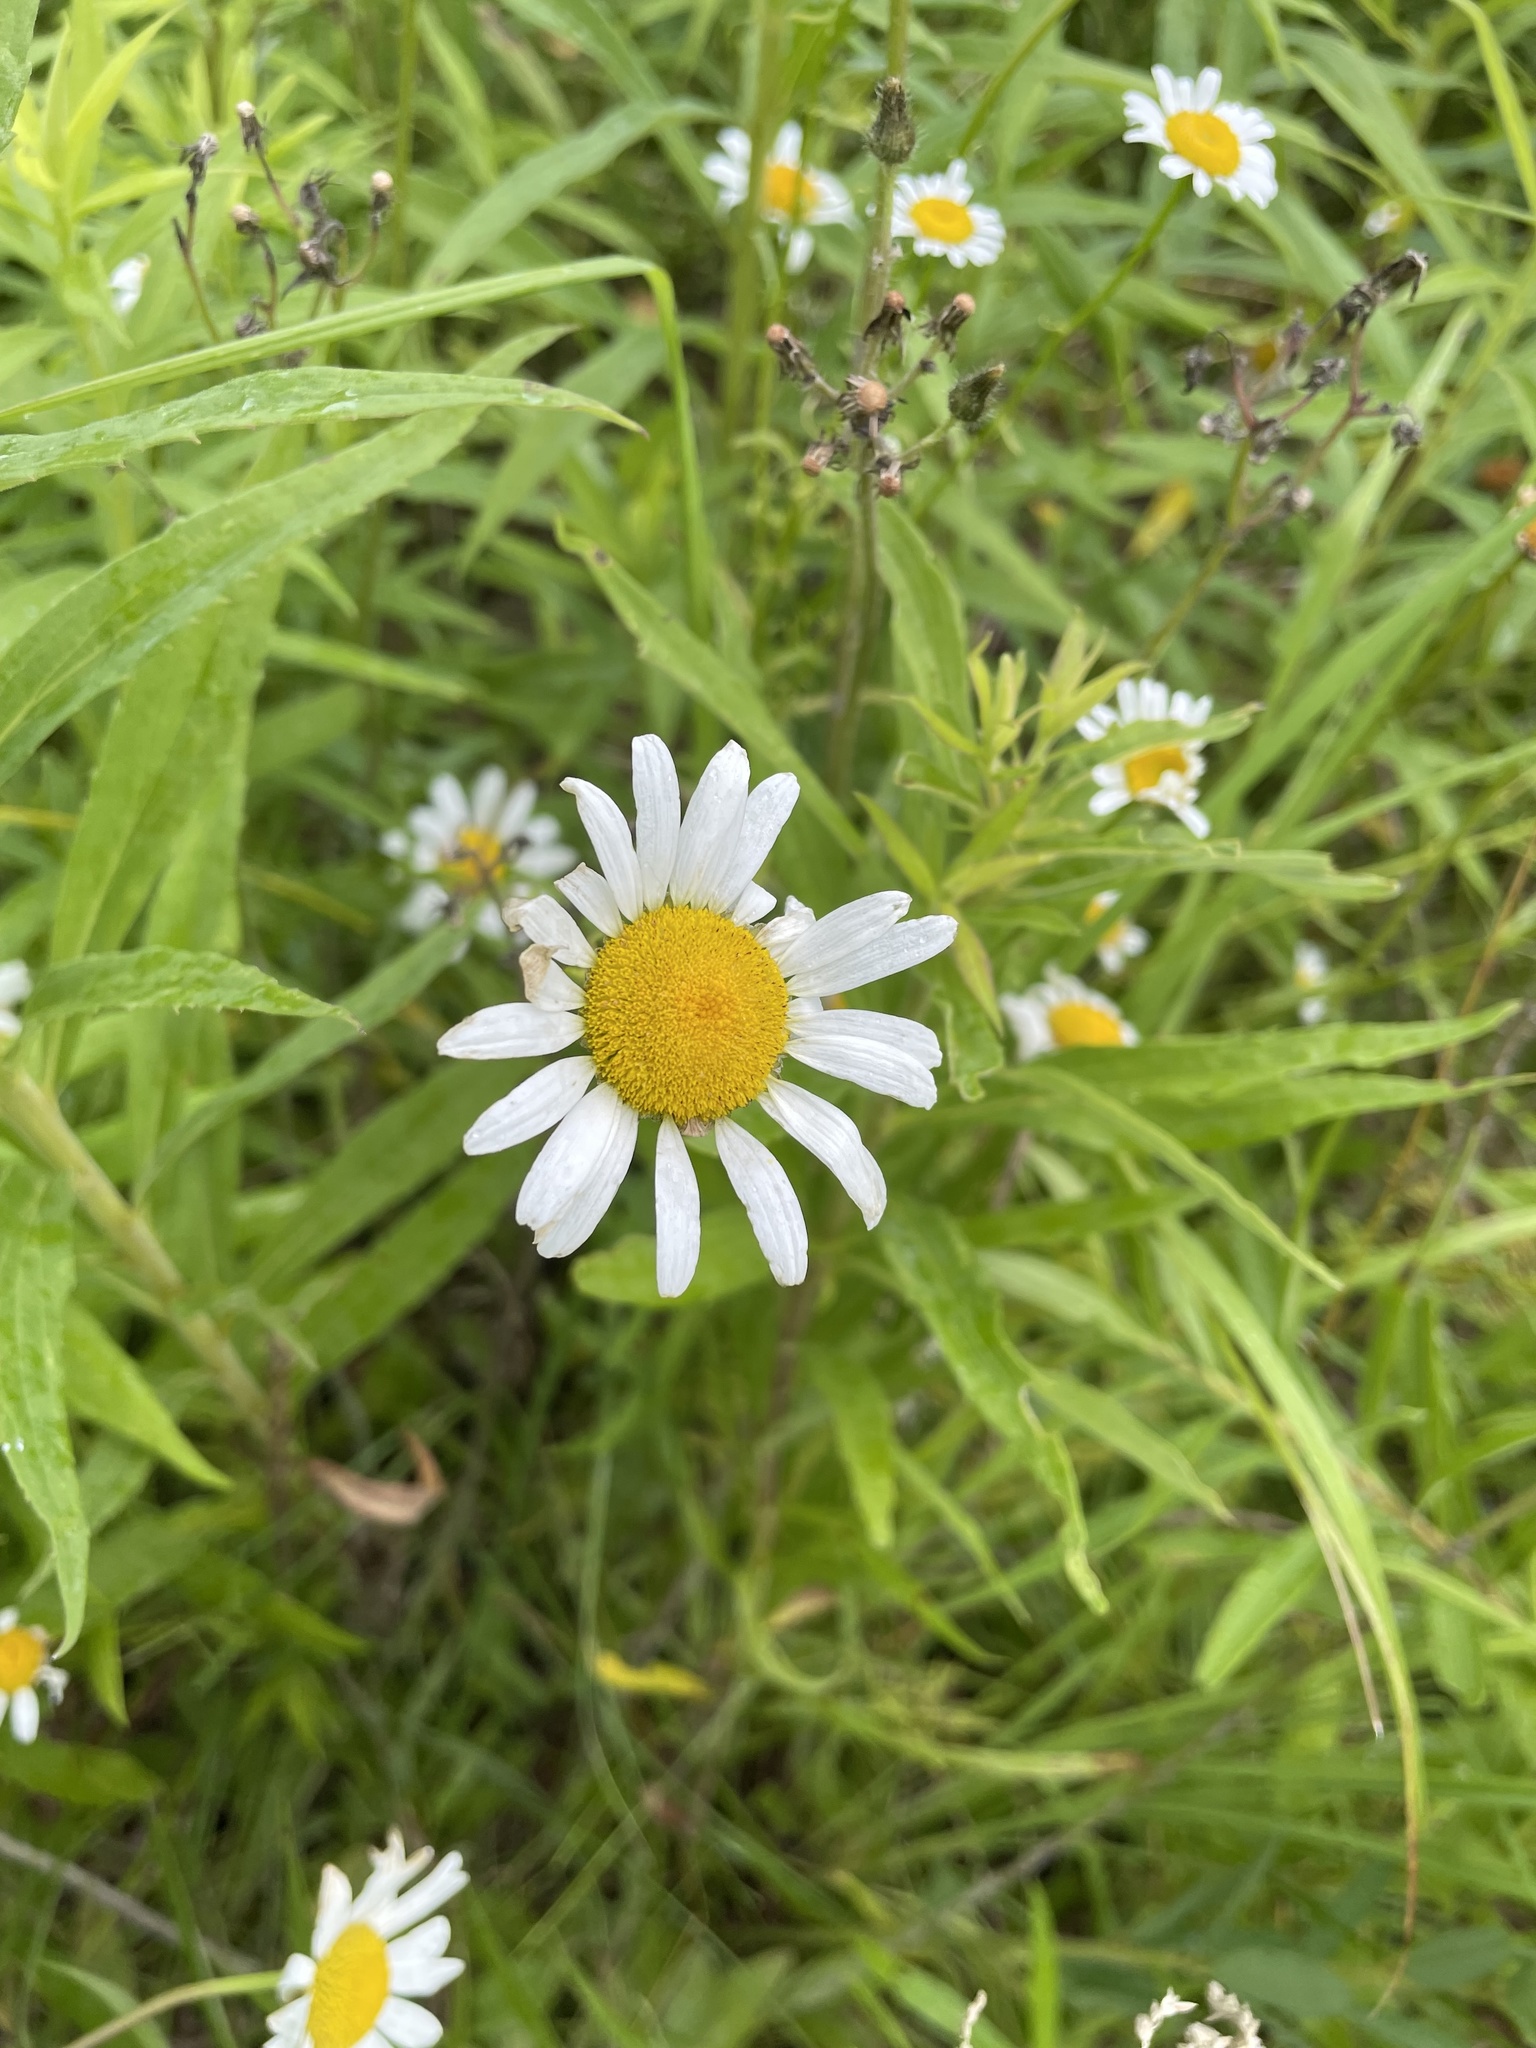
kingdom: Plantae
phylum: Tracheophyta
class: Magnoliopsida
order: Asterales
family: Asteraceae
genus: Leucanthemum
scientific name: Leucanthemum vulgare
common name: Oxeye daisy
